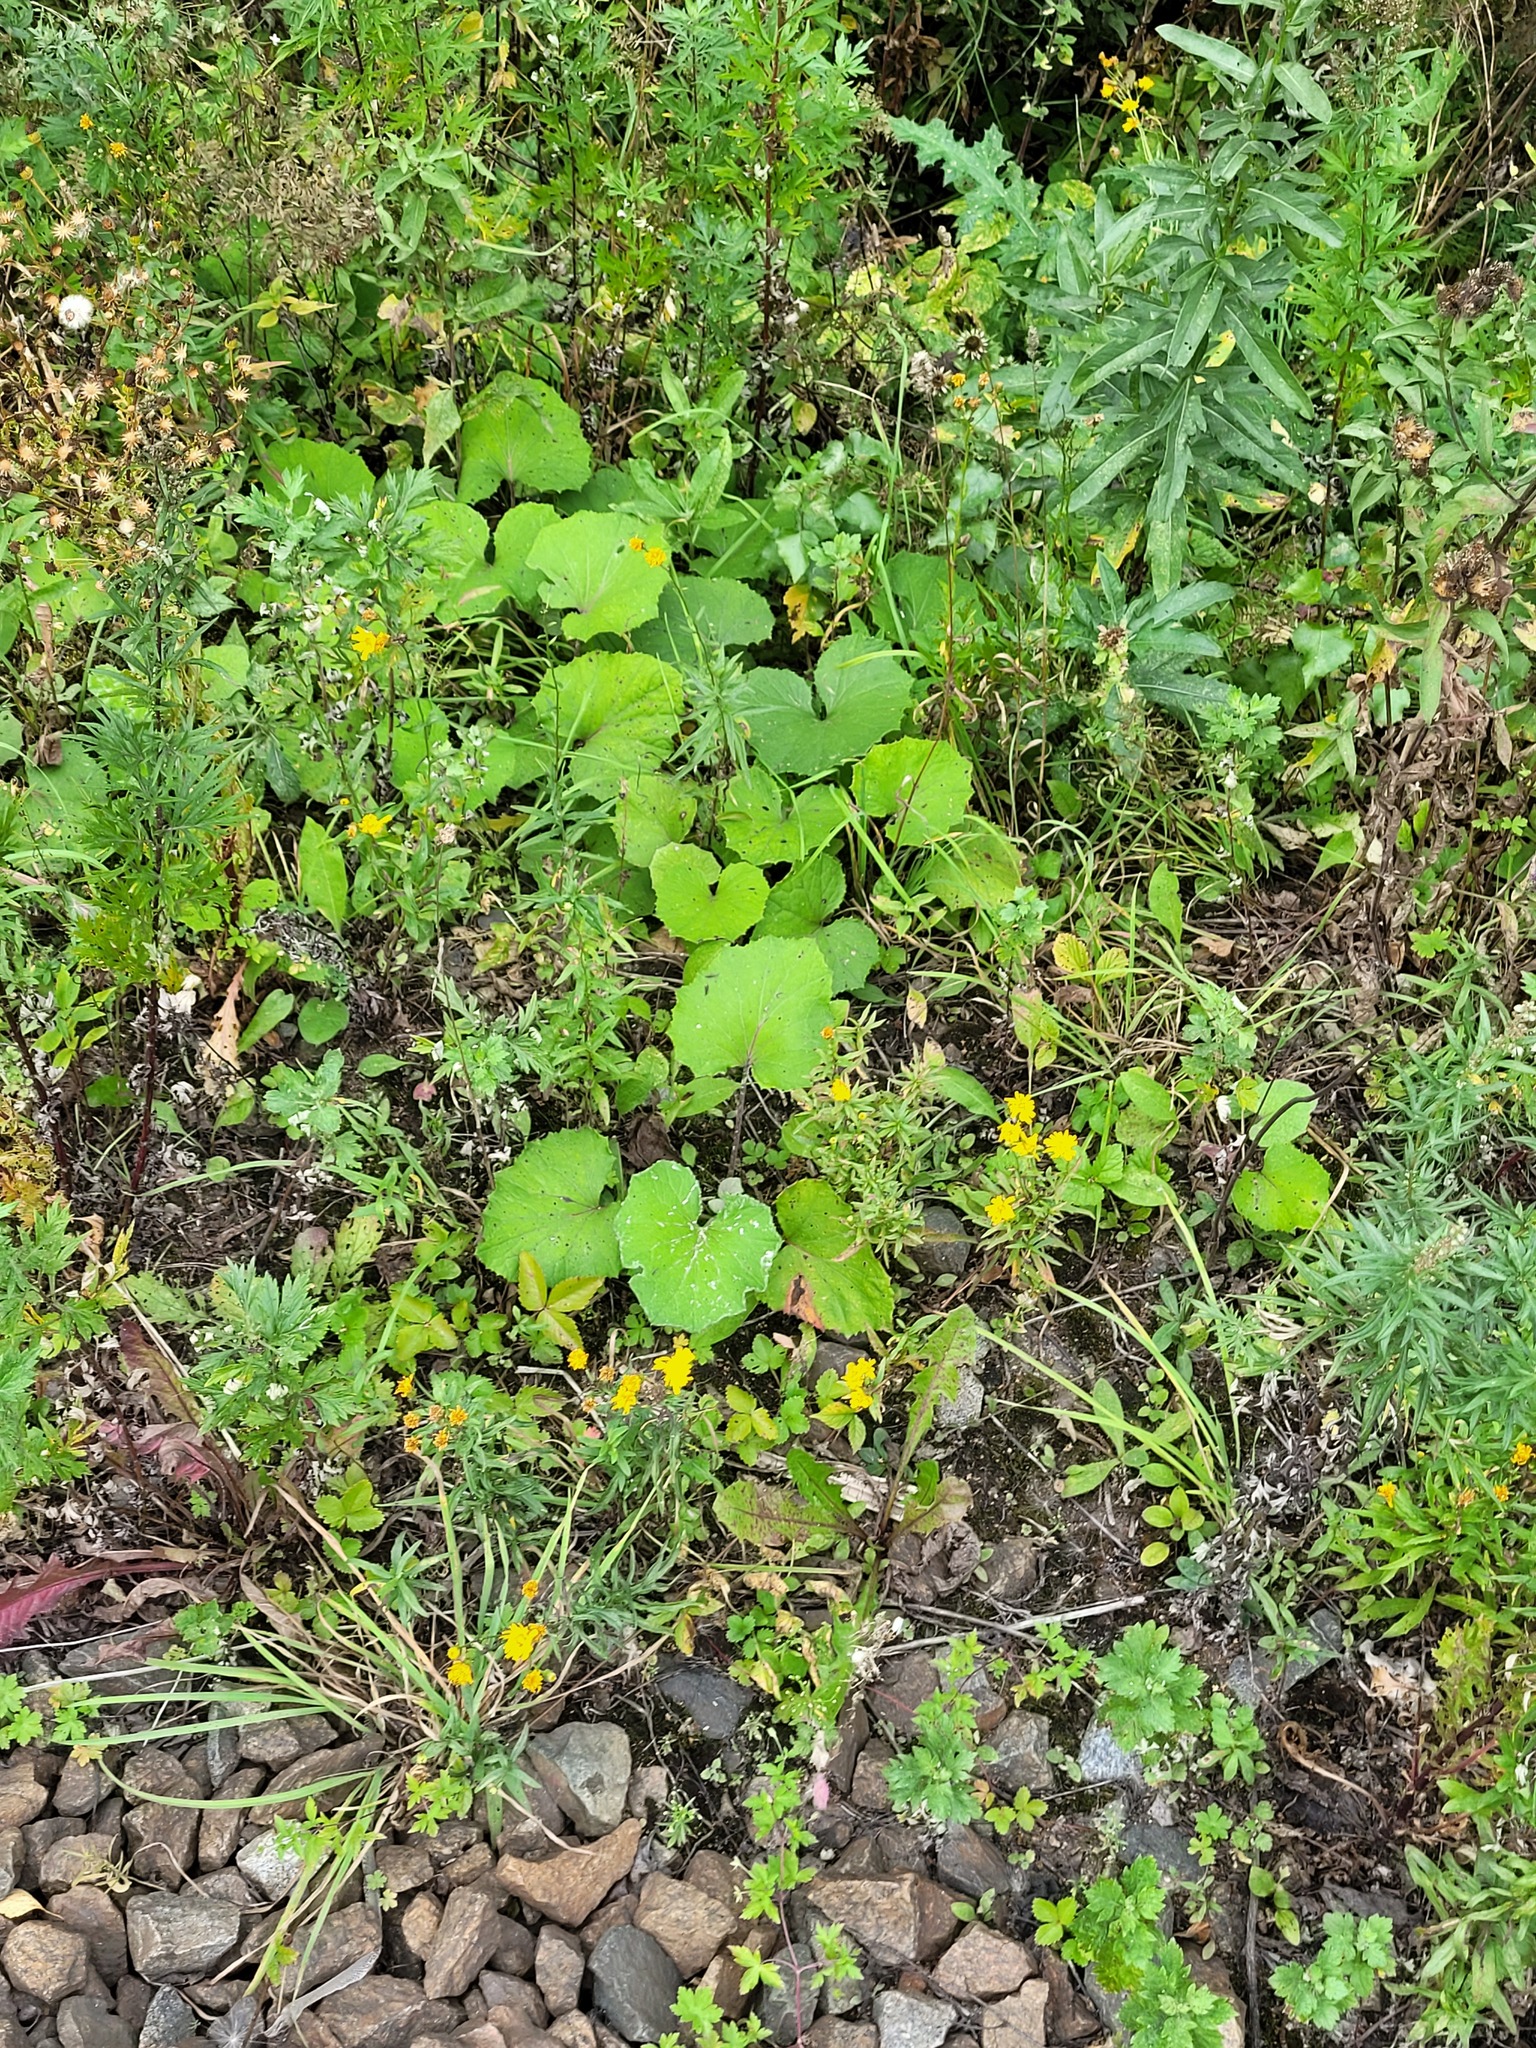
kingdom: Plantae
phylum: Tracheophyta
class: Magnoliopsida
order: Asterales
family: Asteraceae
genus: Tussilago
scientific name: Tussilago farfara
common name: Coltsfoot
